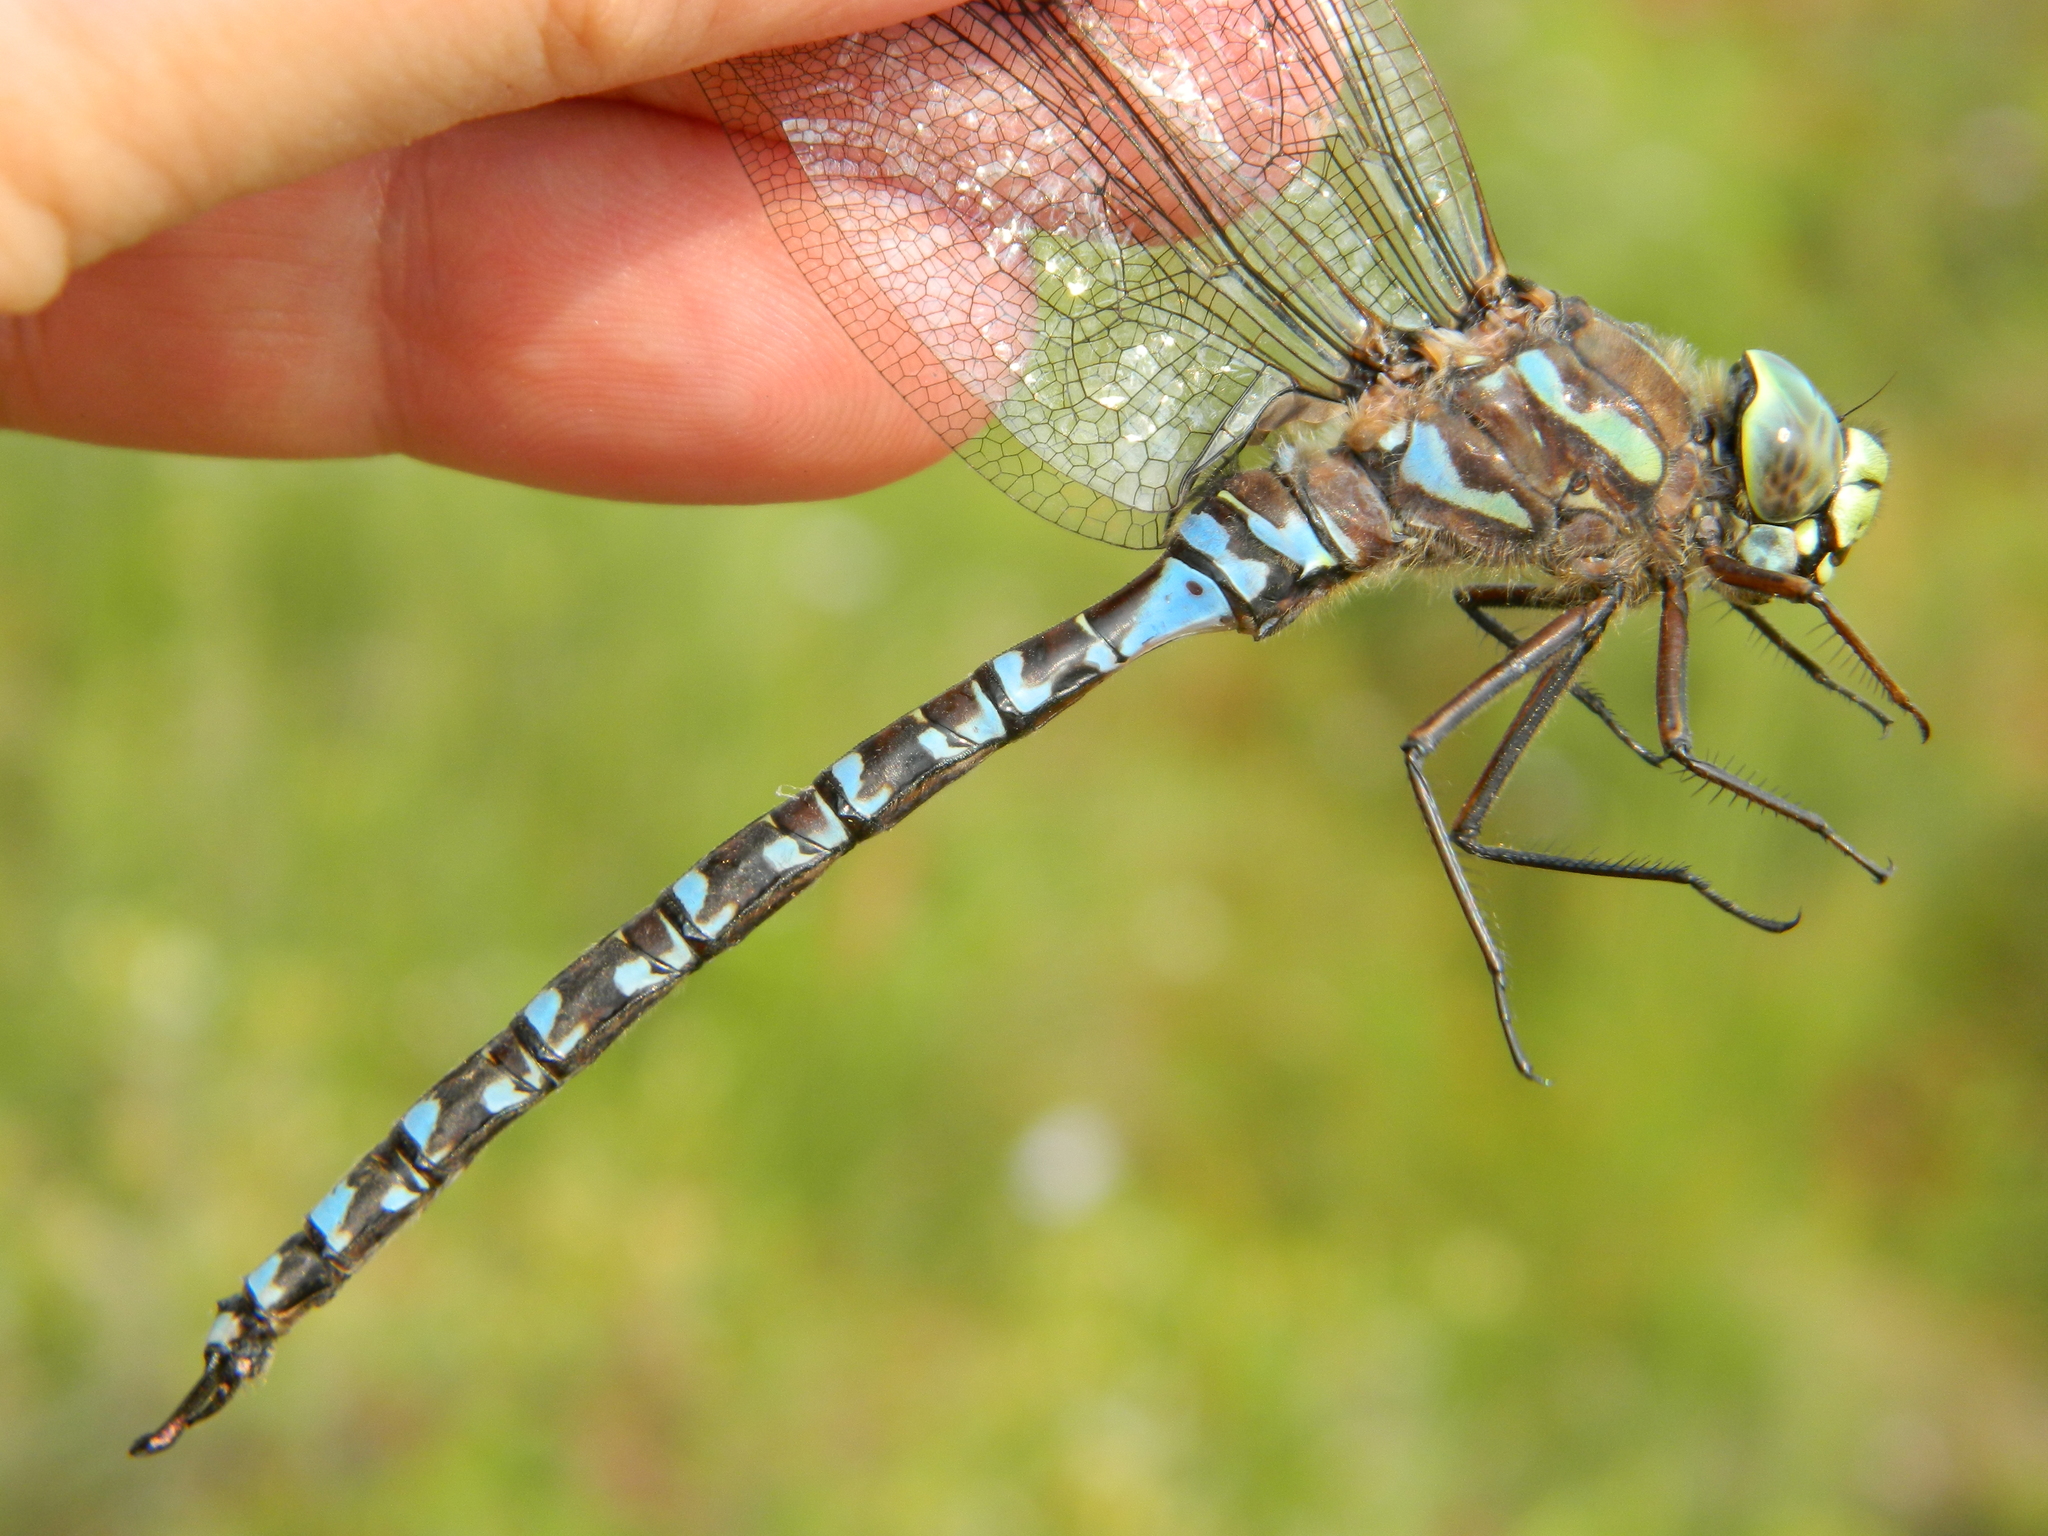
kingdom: Animalia
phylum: Arthropoda
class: Insecta
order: Odonata
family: Aeshnidae
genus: Aeshna
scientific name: Aeshna eremita
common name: Lake darner
